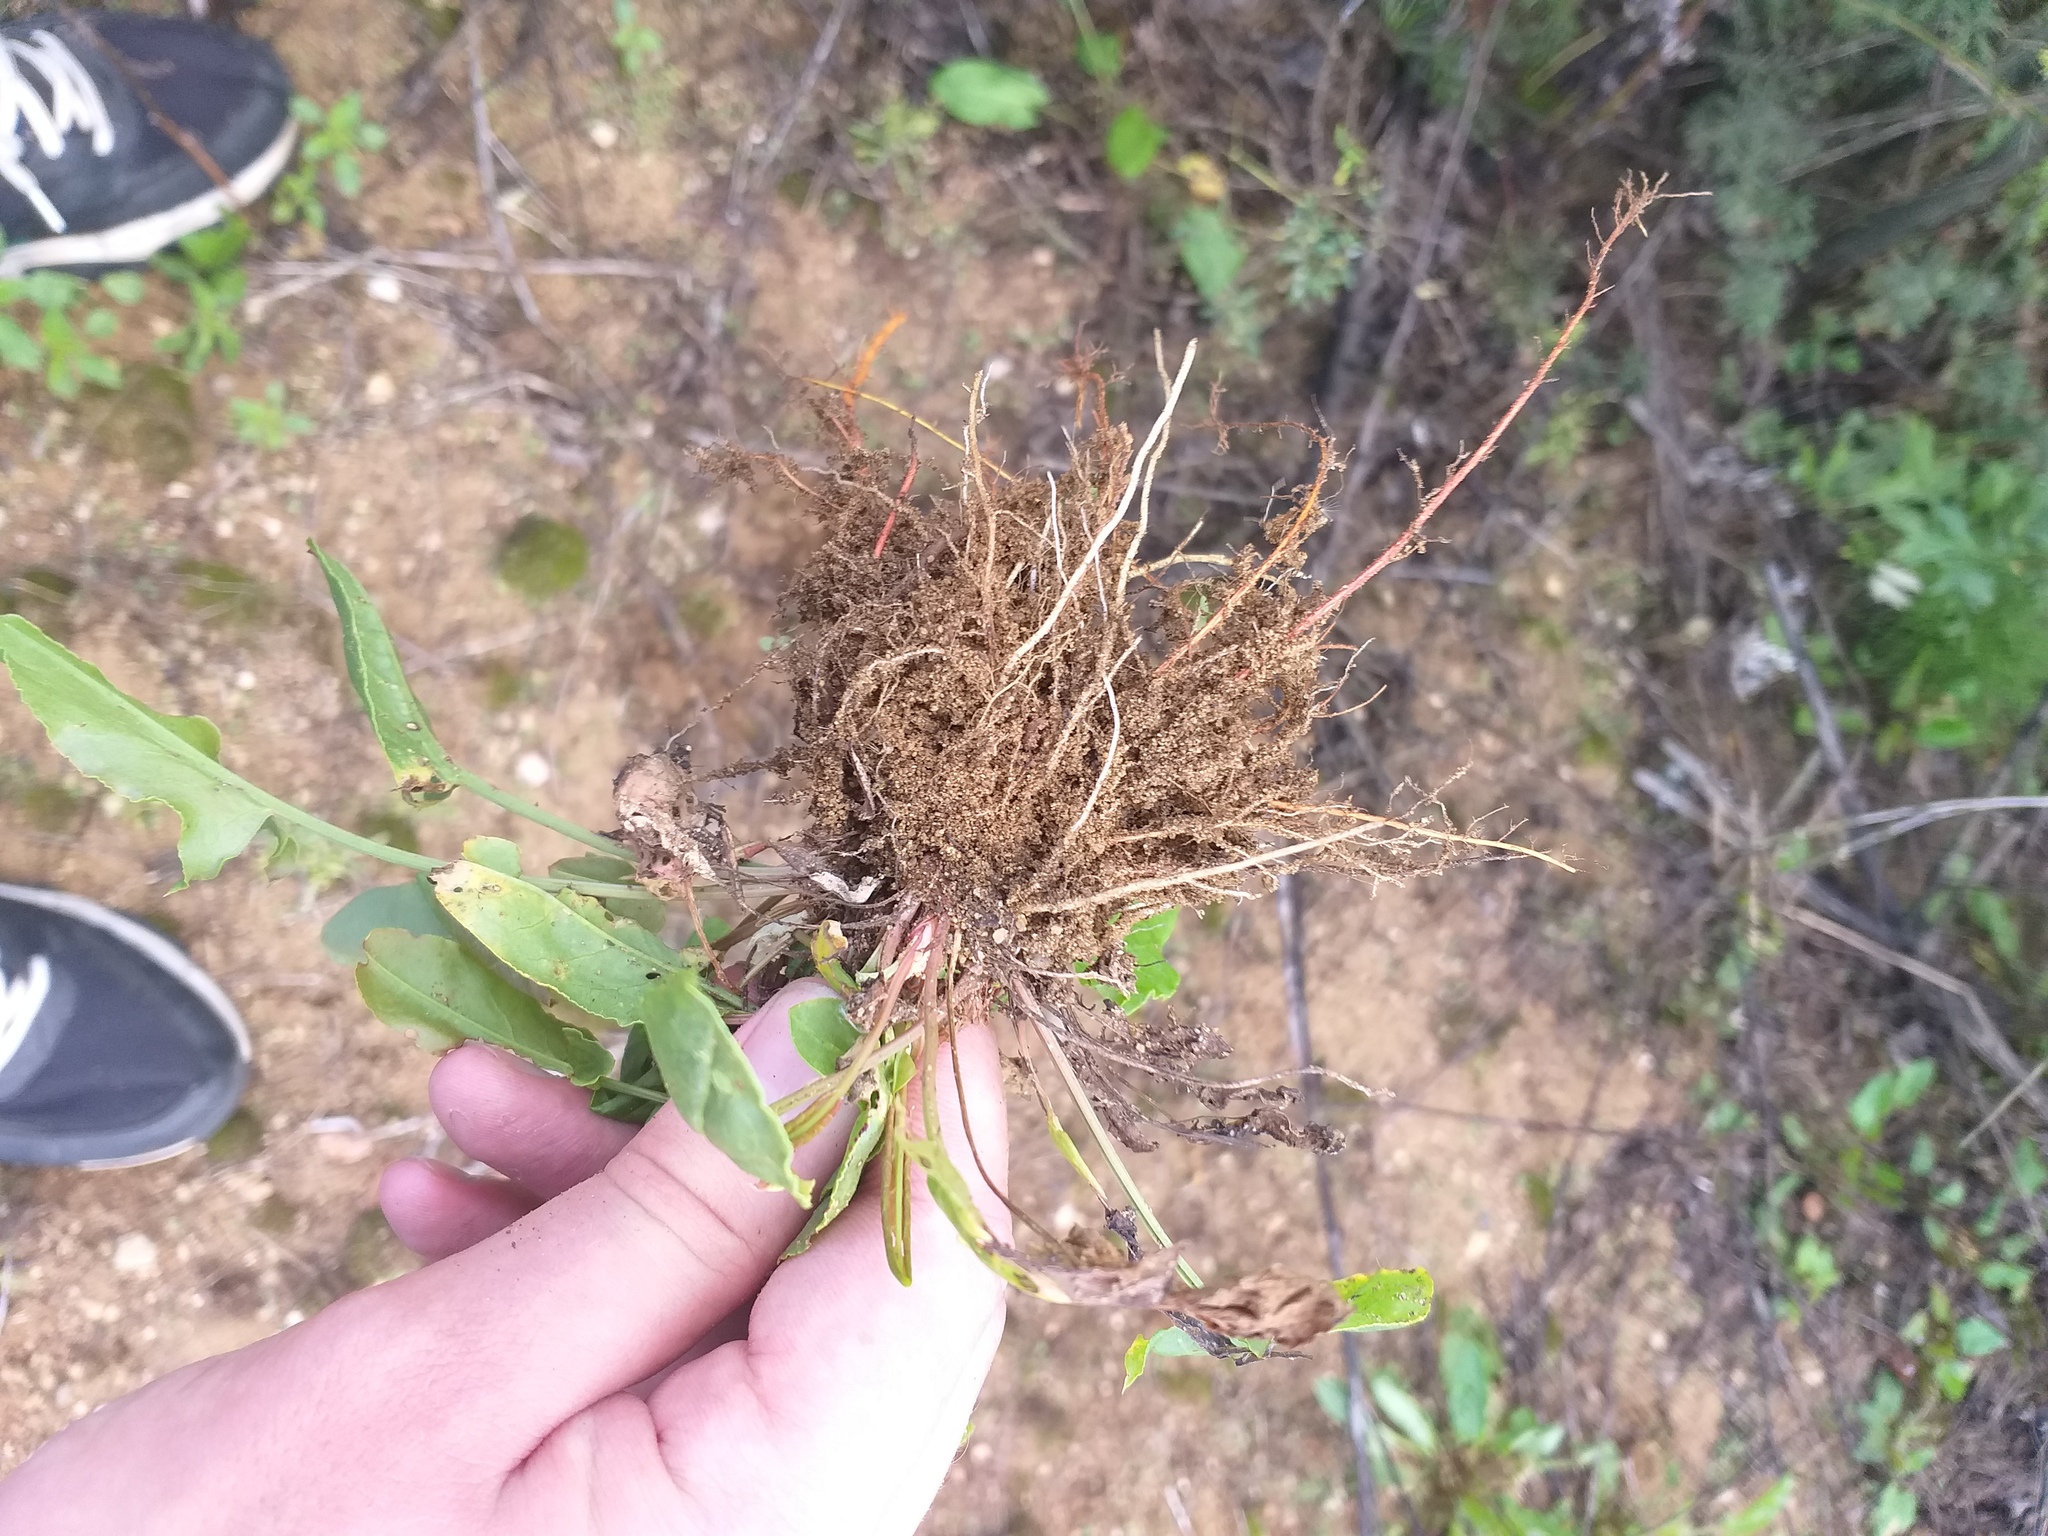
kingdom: Plantae
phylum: Tracheophyta
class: Magnoliopsida
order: Caryophyllales
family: Polygonaceae
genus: Rumex
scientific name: Rumex acetosa
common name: Garden sorrel
